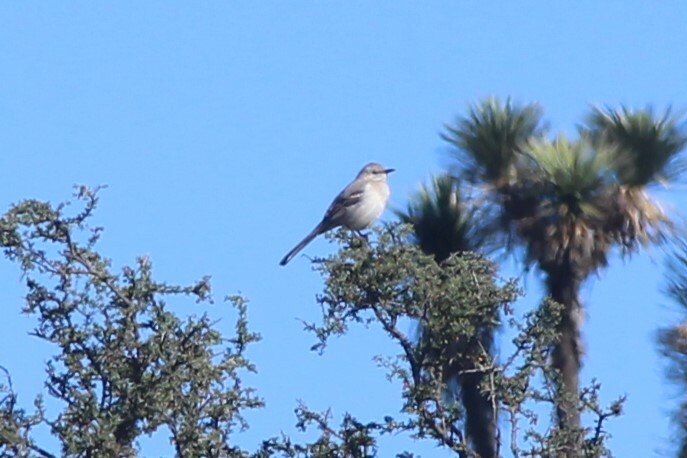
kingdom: Animalia
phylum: Chordata
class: Aves
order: Passeriformes
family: Mimidae
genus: Mimus
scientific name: Mimus polyglottos
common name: Northern mockingbird
